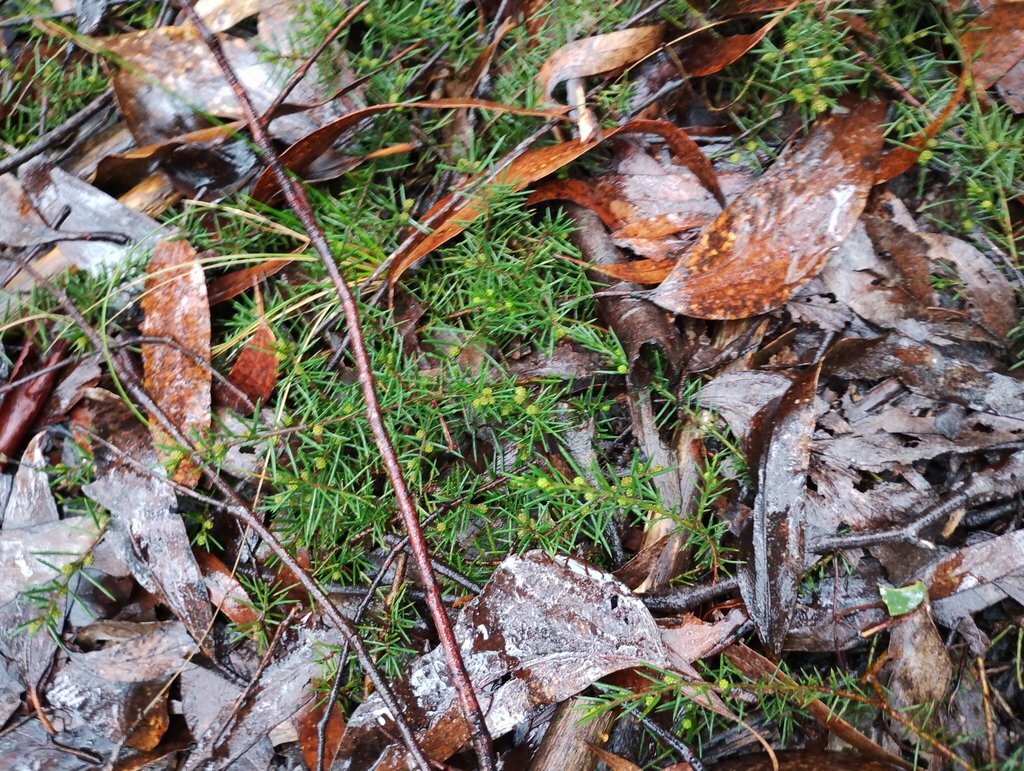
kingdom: Plantae
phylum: Tracheophyta
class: Magnoliopsida
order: Fabales
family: Fabaceae
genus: Acacia
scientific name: Acacia aculeatissima
